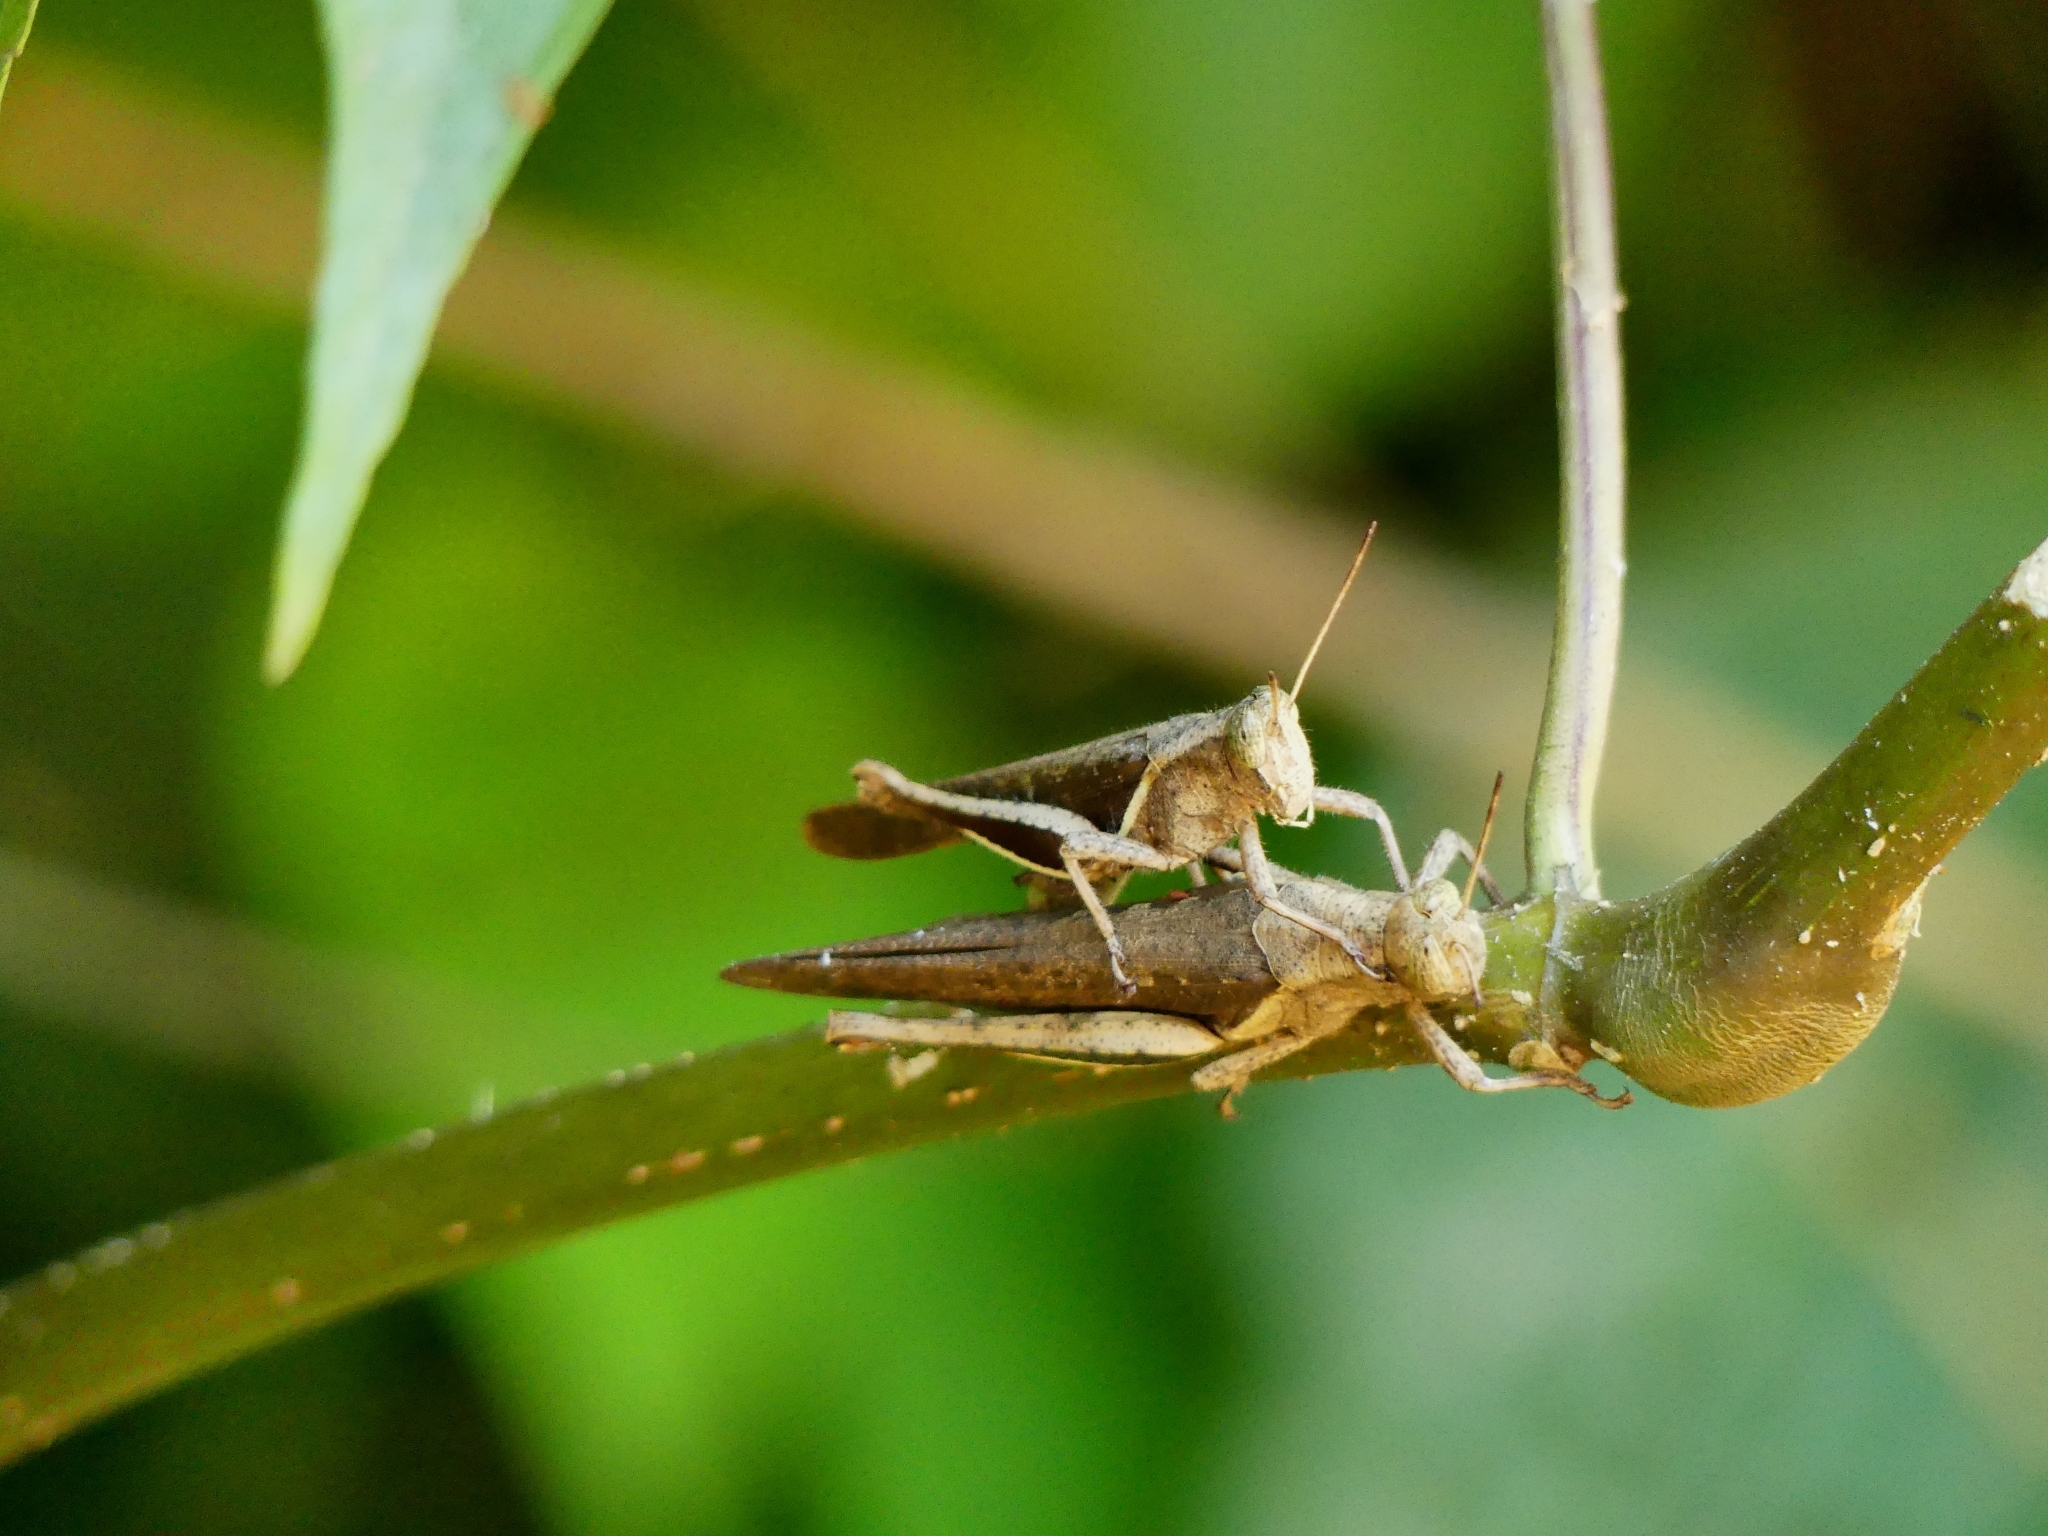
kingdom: Animalia
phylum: Arthropoda
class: Insecta
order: Orthoptera
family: Acrididae
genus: Abracris
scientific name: Abracris flavolineata
